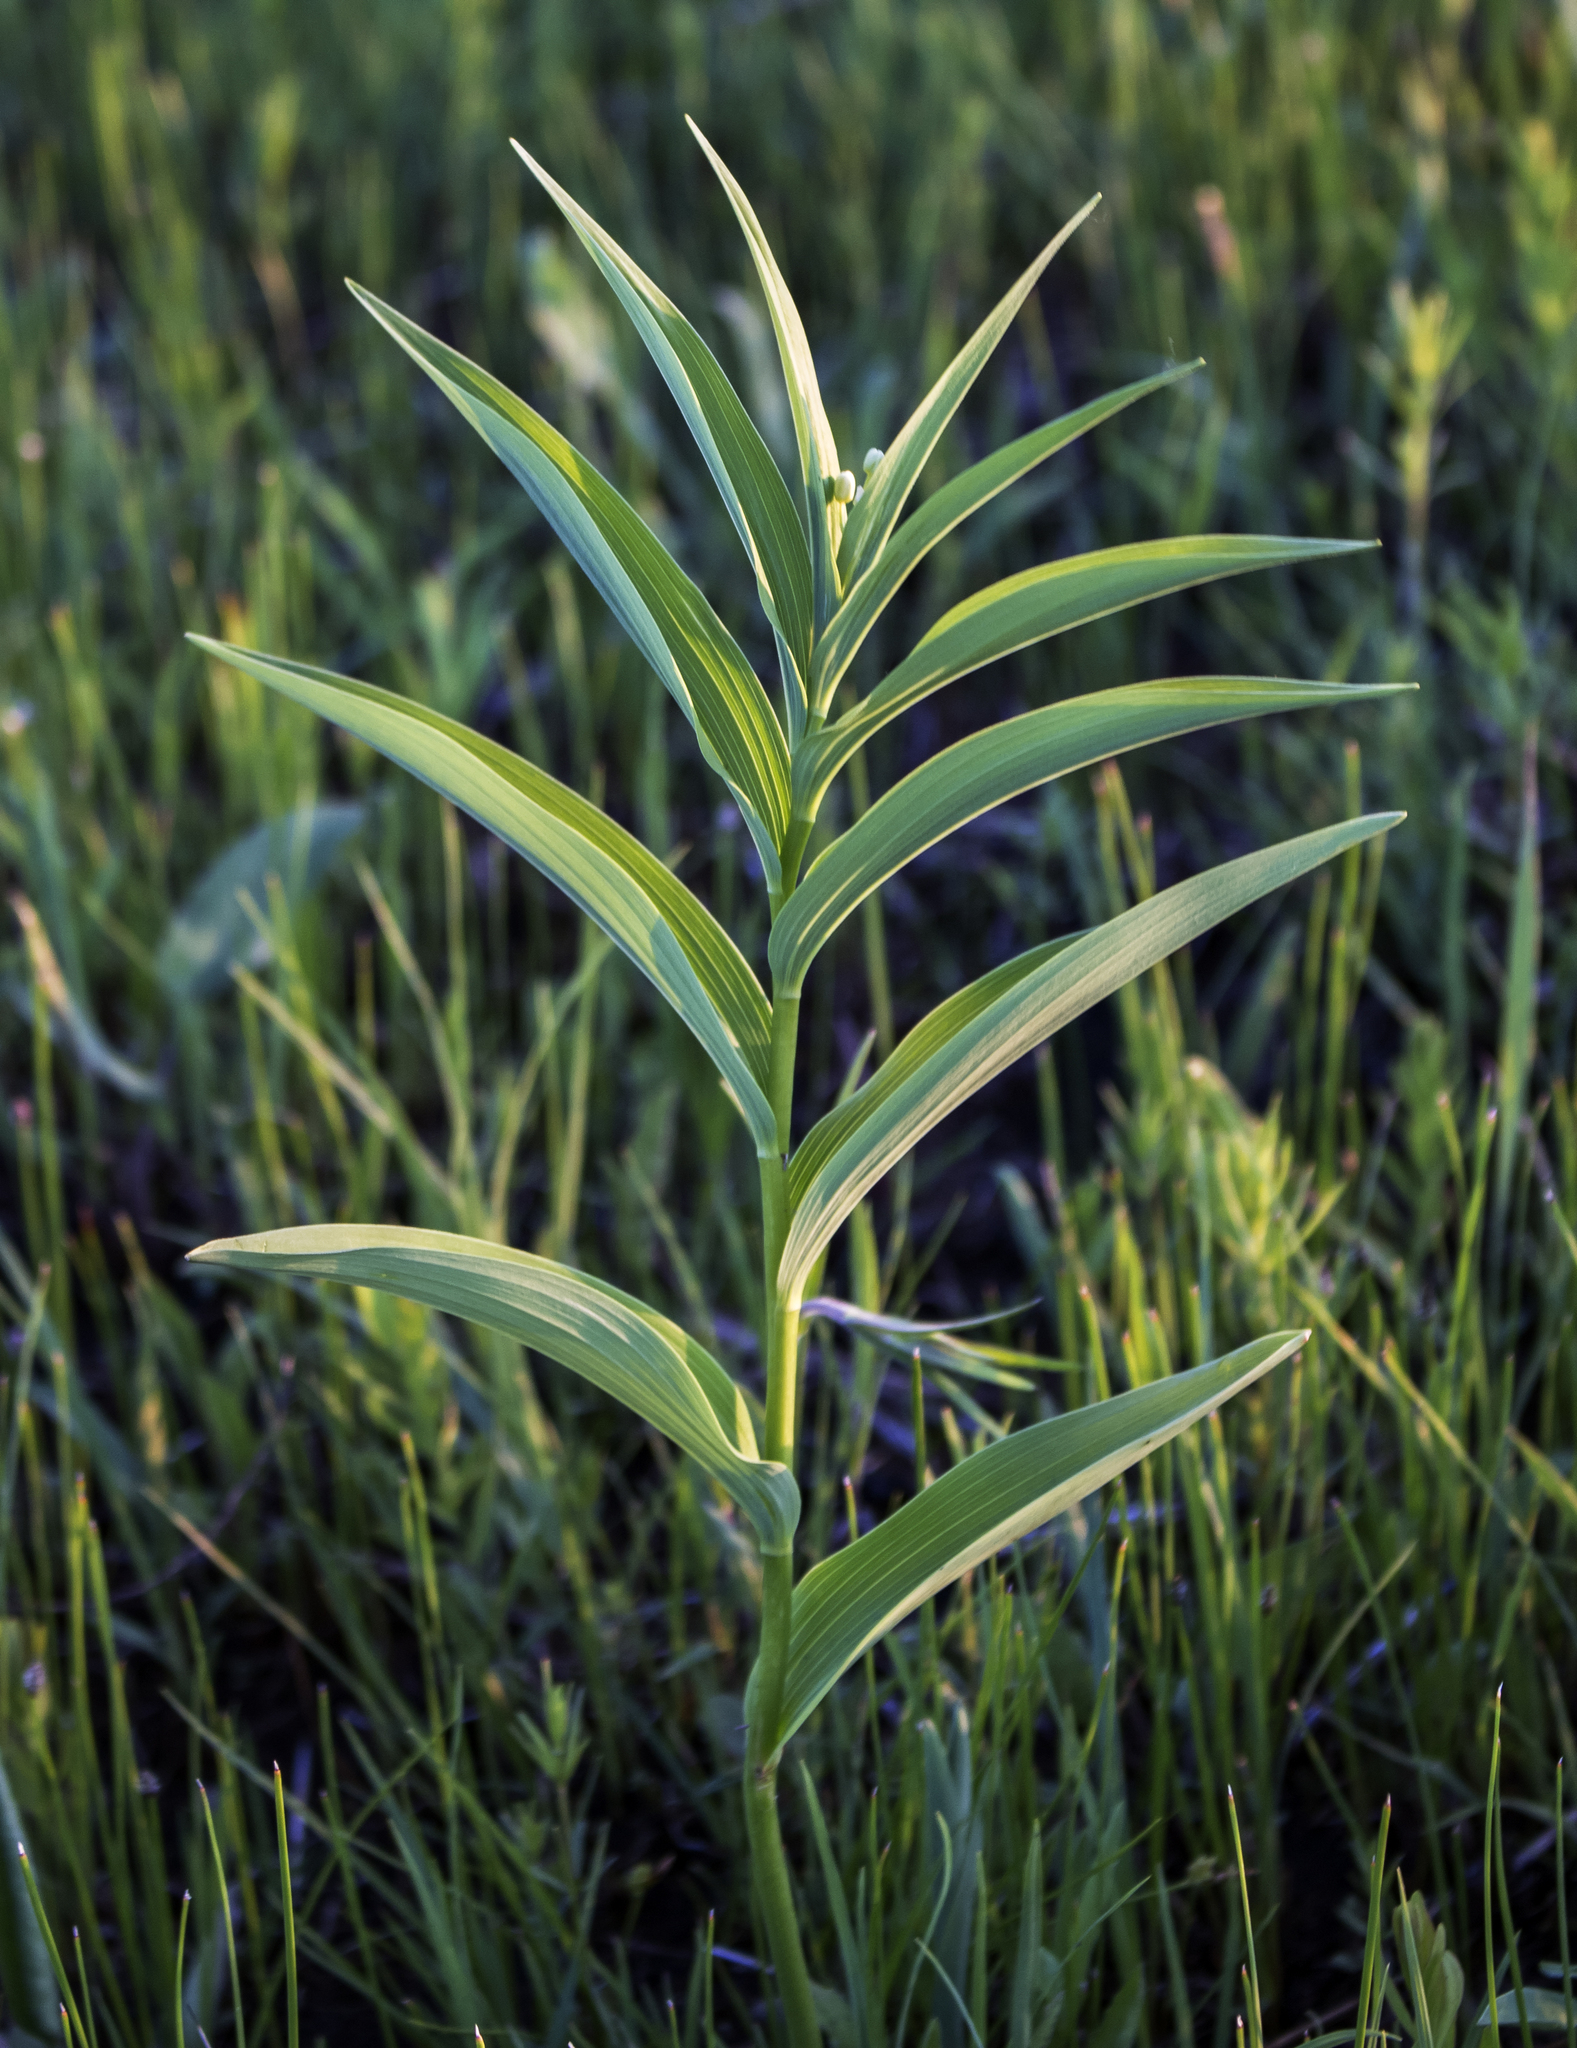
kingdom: Plantae
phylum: Tracheophyta
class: Liliopsida
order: Asparagales
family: Asparagaceae
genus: Maianthemum
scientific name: Maianthemum stellatum
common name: Little false solomon's seal
